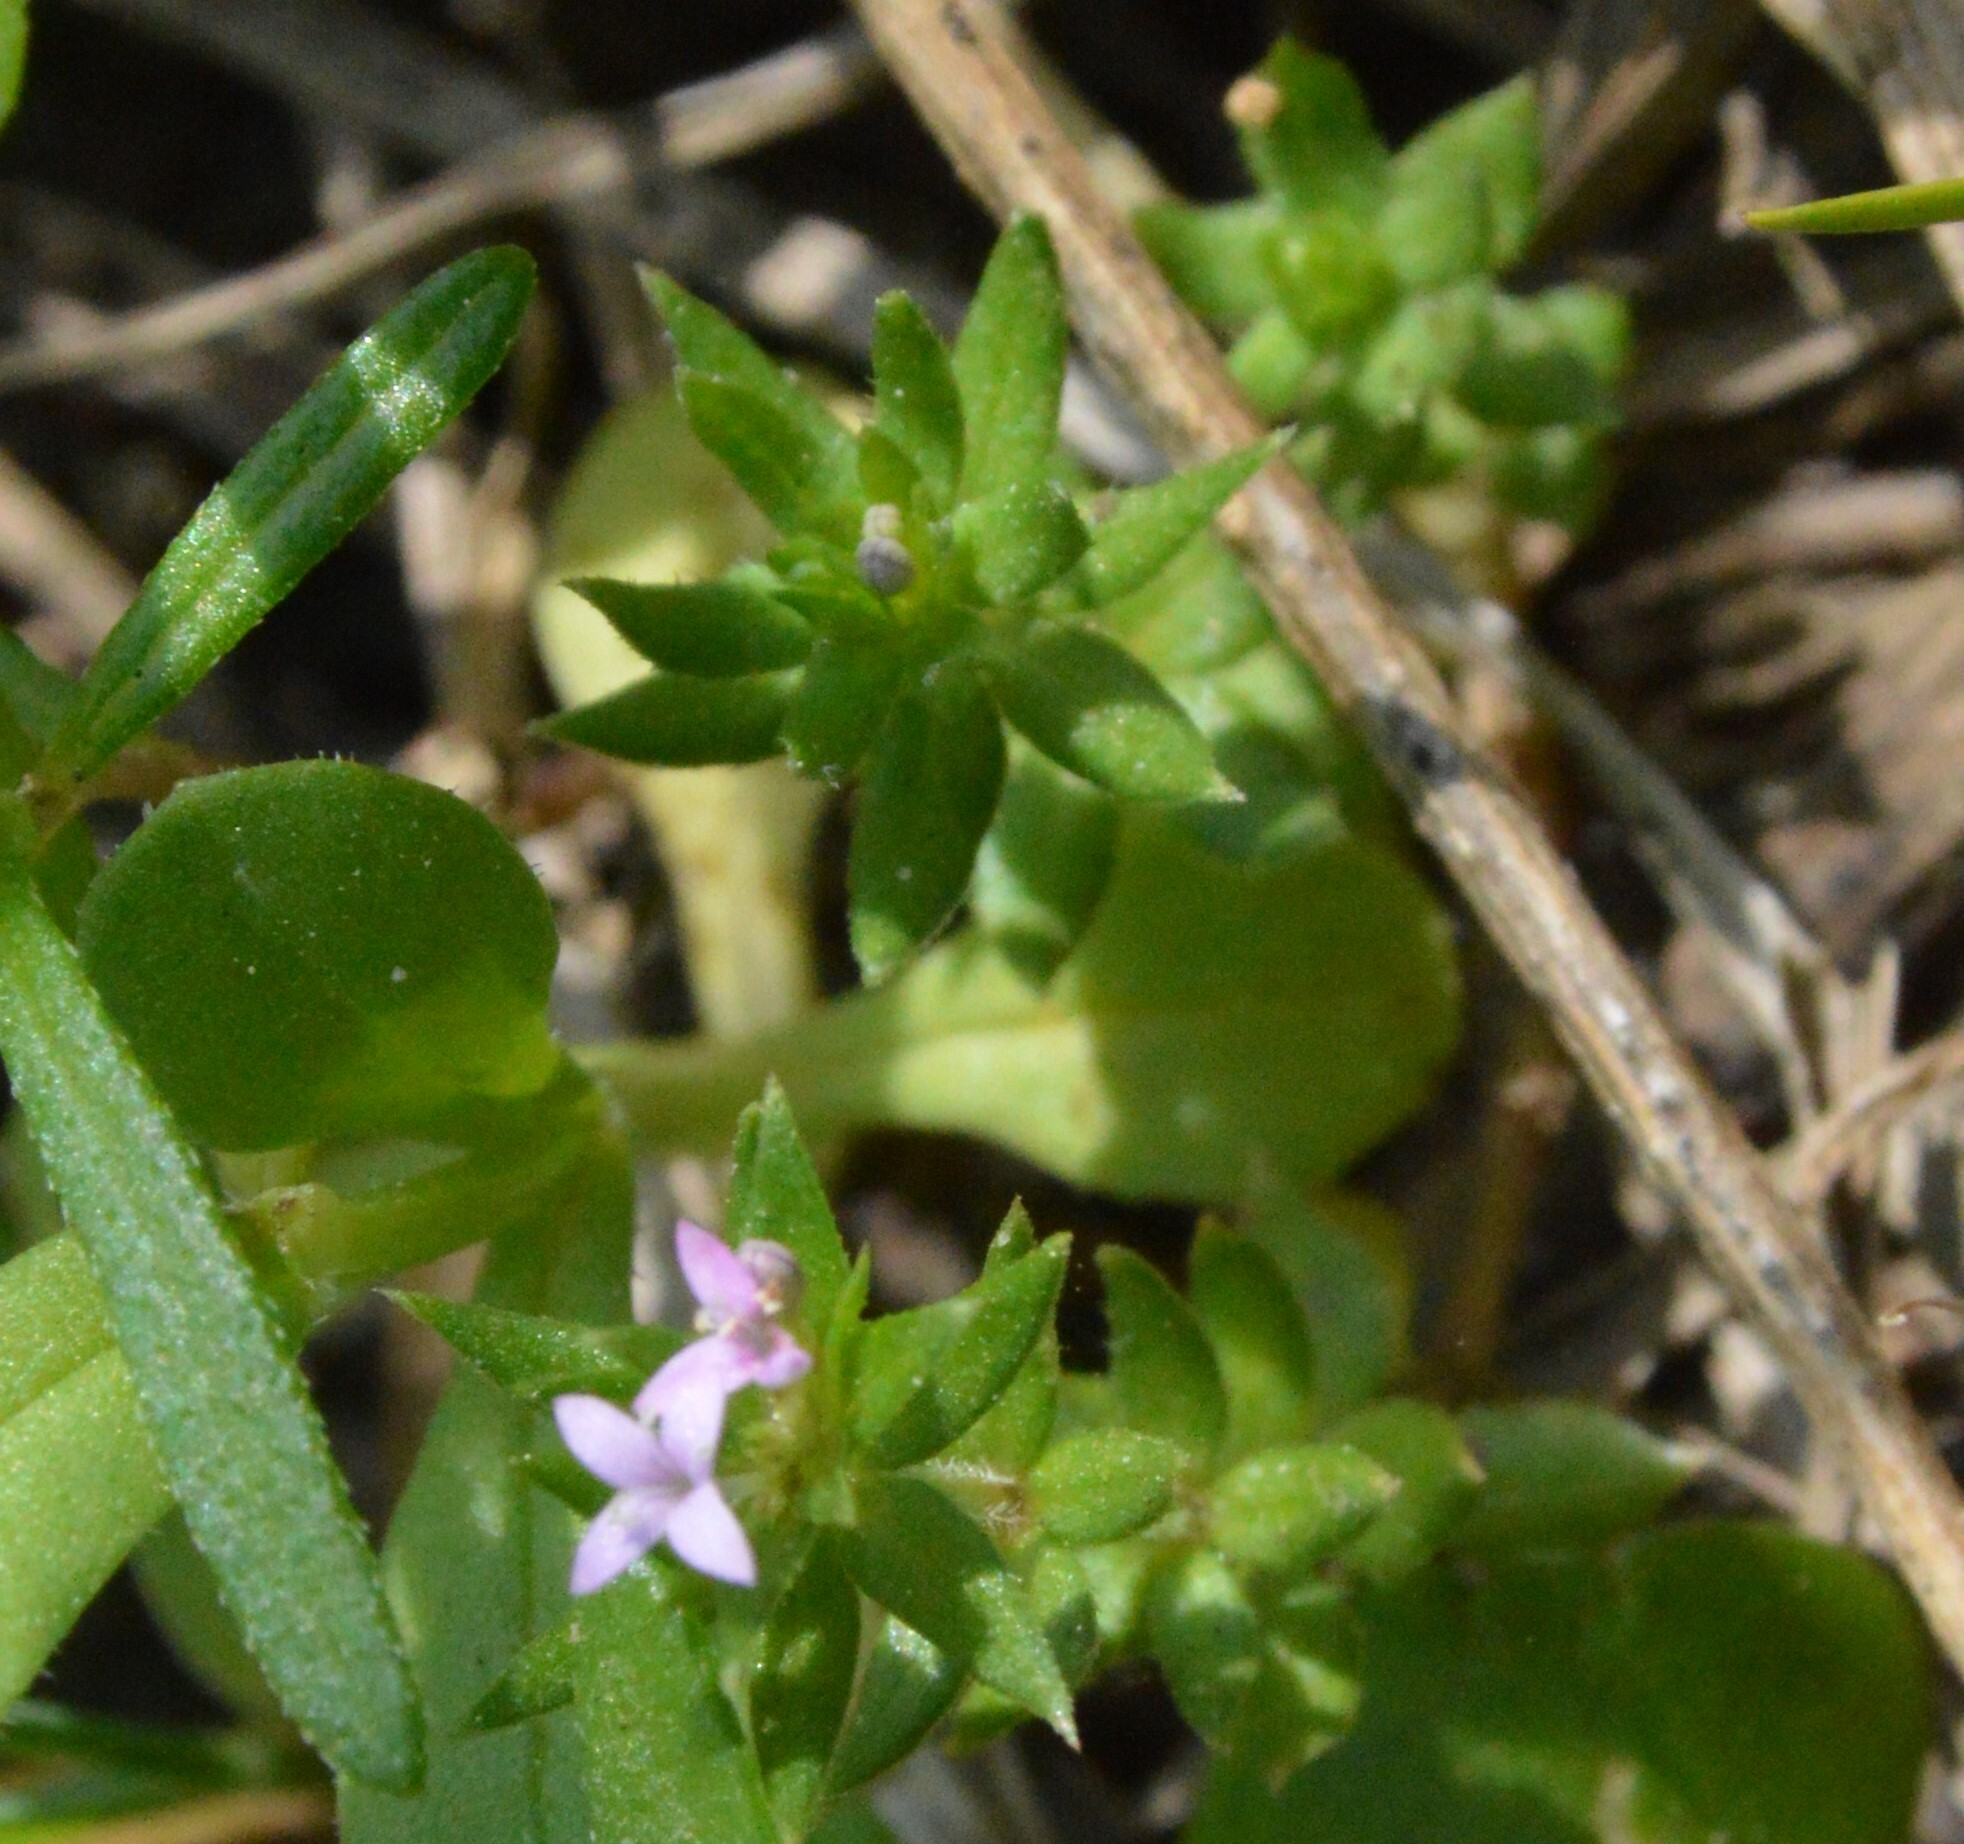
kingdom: Plantae
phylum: Tracheophyta
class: Magnoliopsida
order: Gentianales
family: Rubiaceae
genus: Sherardia
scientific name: Sherardia arvensis
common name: Field madder
